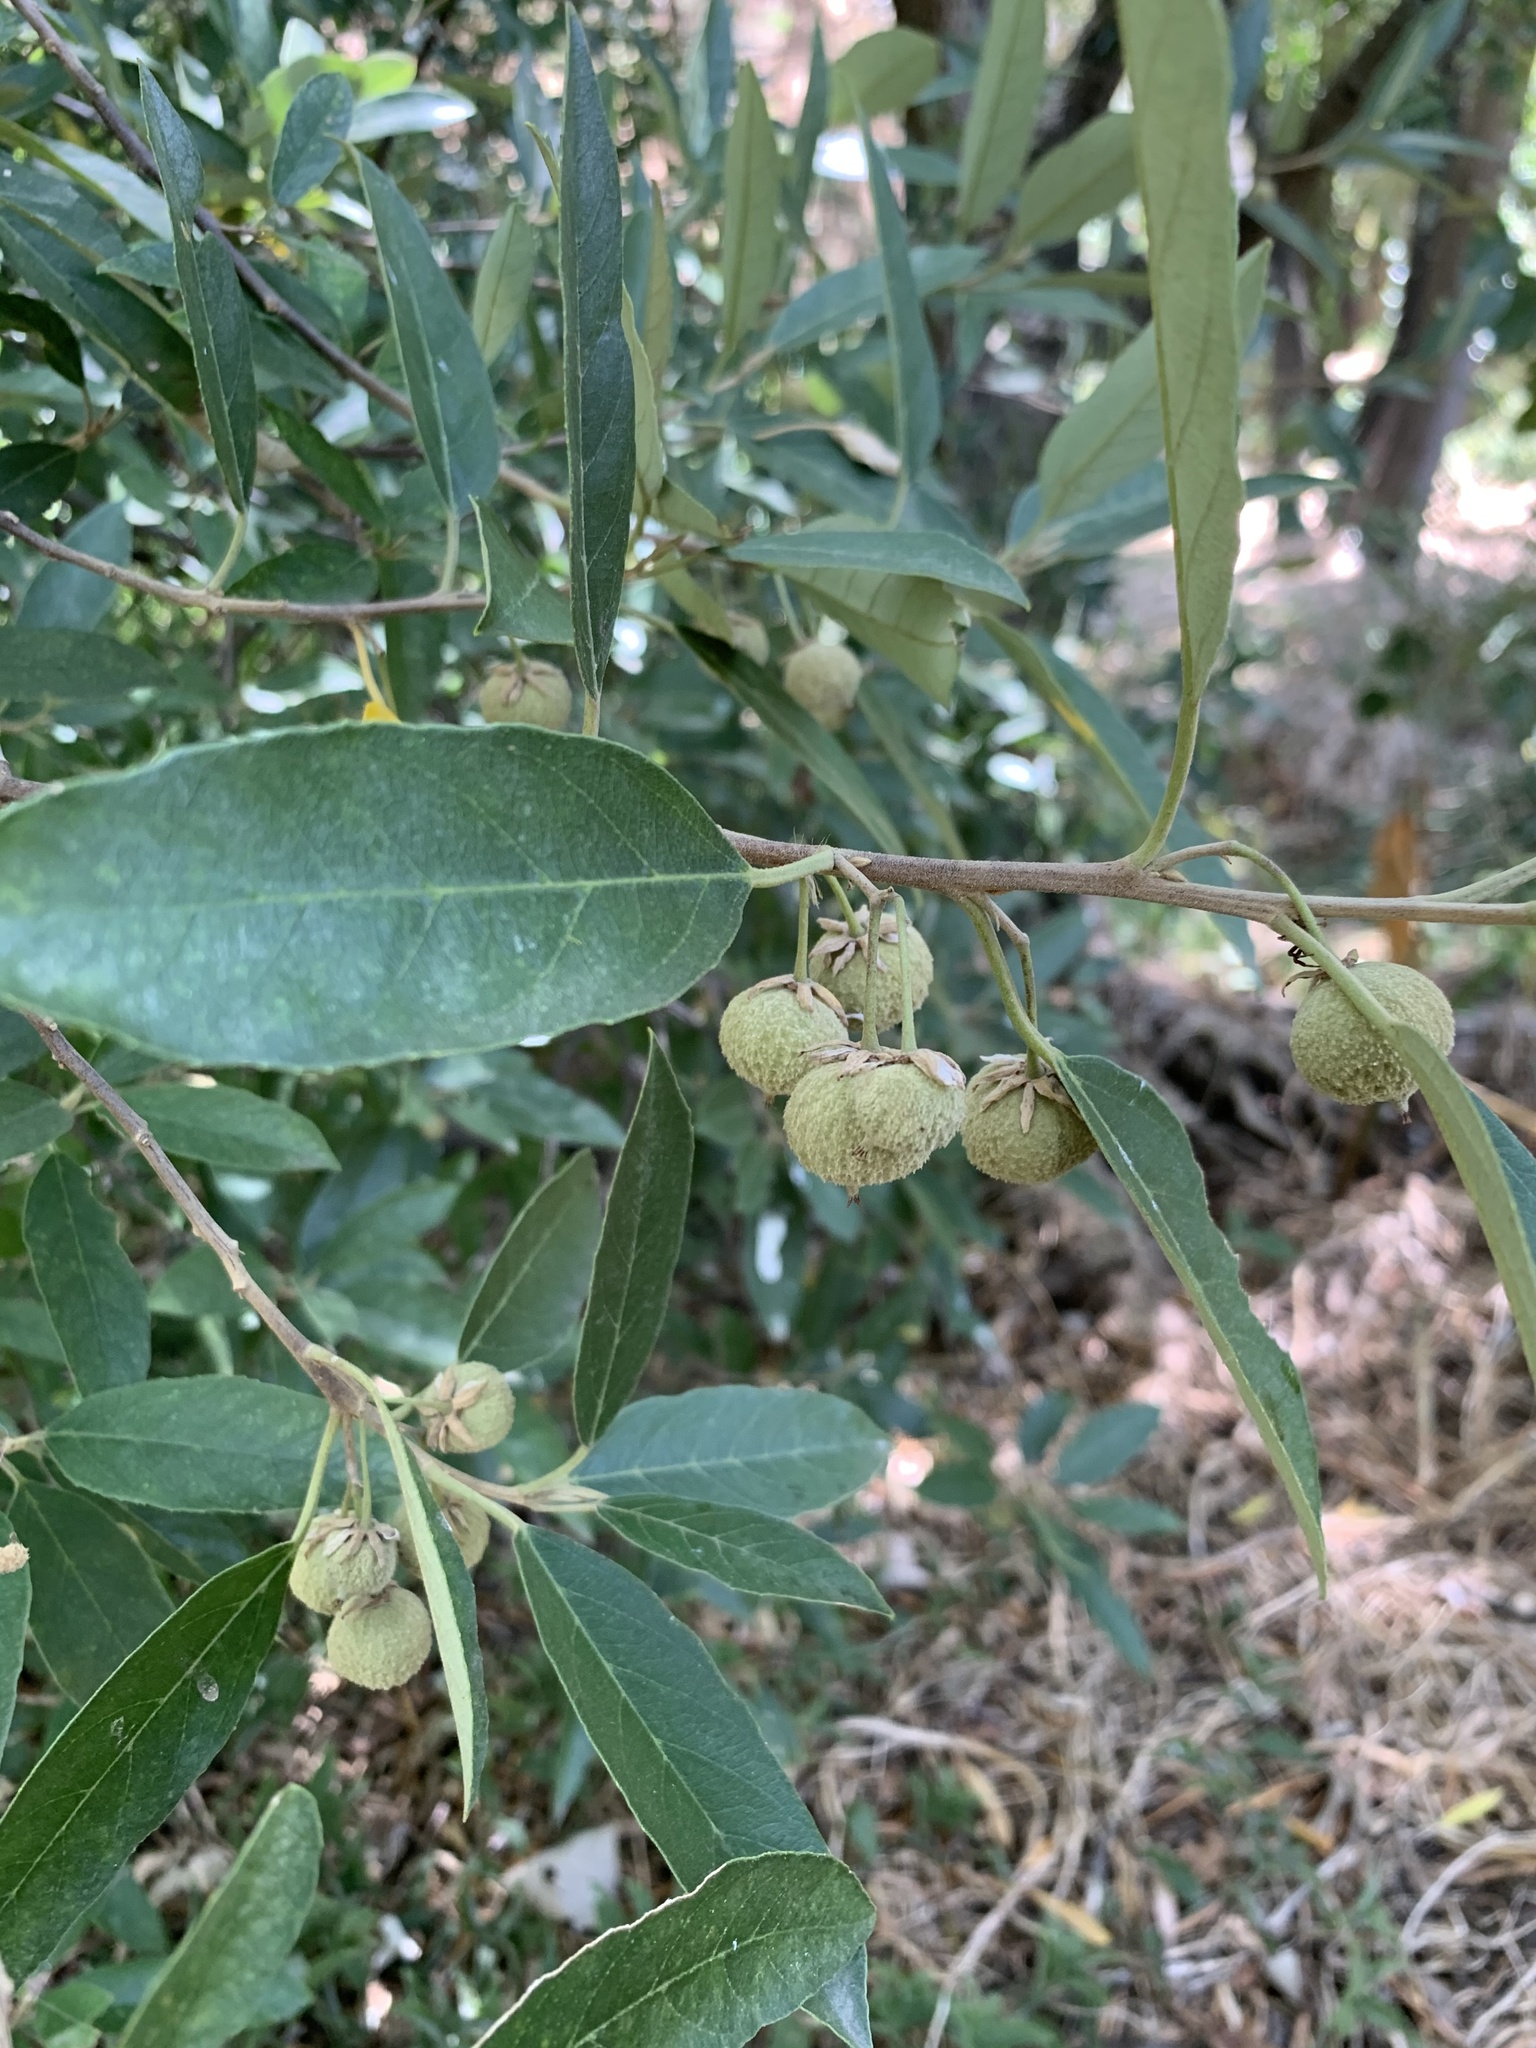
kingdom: Plantae
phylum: Tracheophyta
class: Magnoliopsida
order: Malpighiales
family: Achariaceae
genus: Kiggelaria
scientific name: Kiggelaria africana
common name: Wild peach
